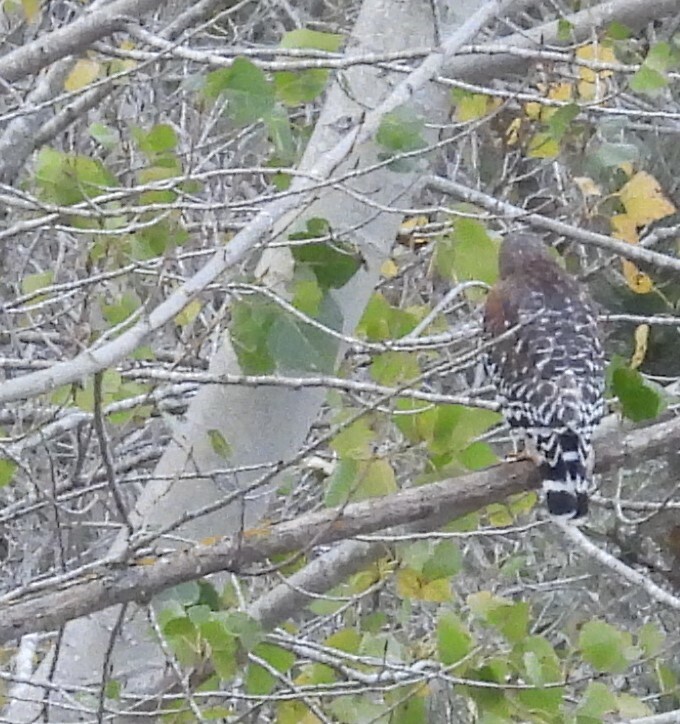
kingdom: Animalia
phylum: Chordata
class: Aves
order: Accipitriformes
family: Accipitridae
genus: Buteo
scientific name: Buteo lineatus
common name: Red-shouldered hawk
